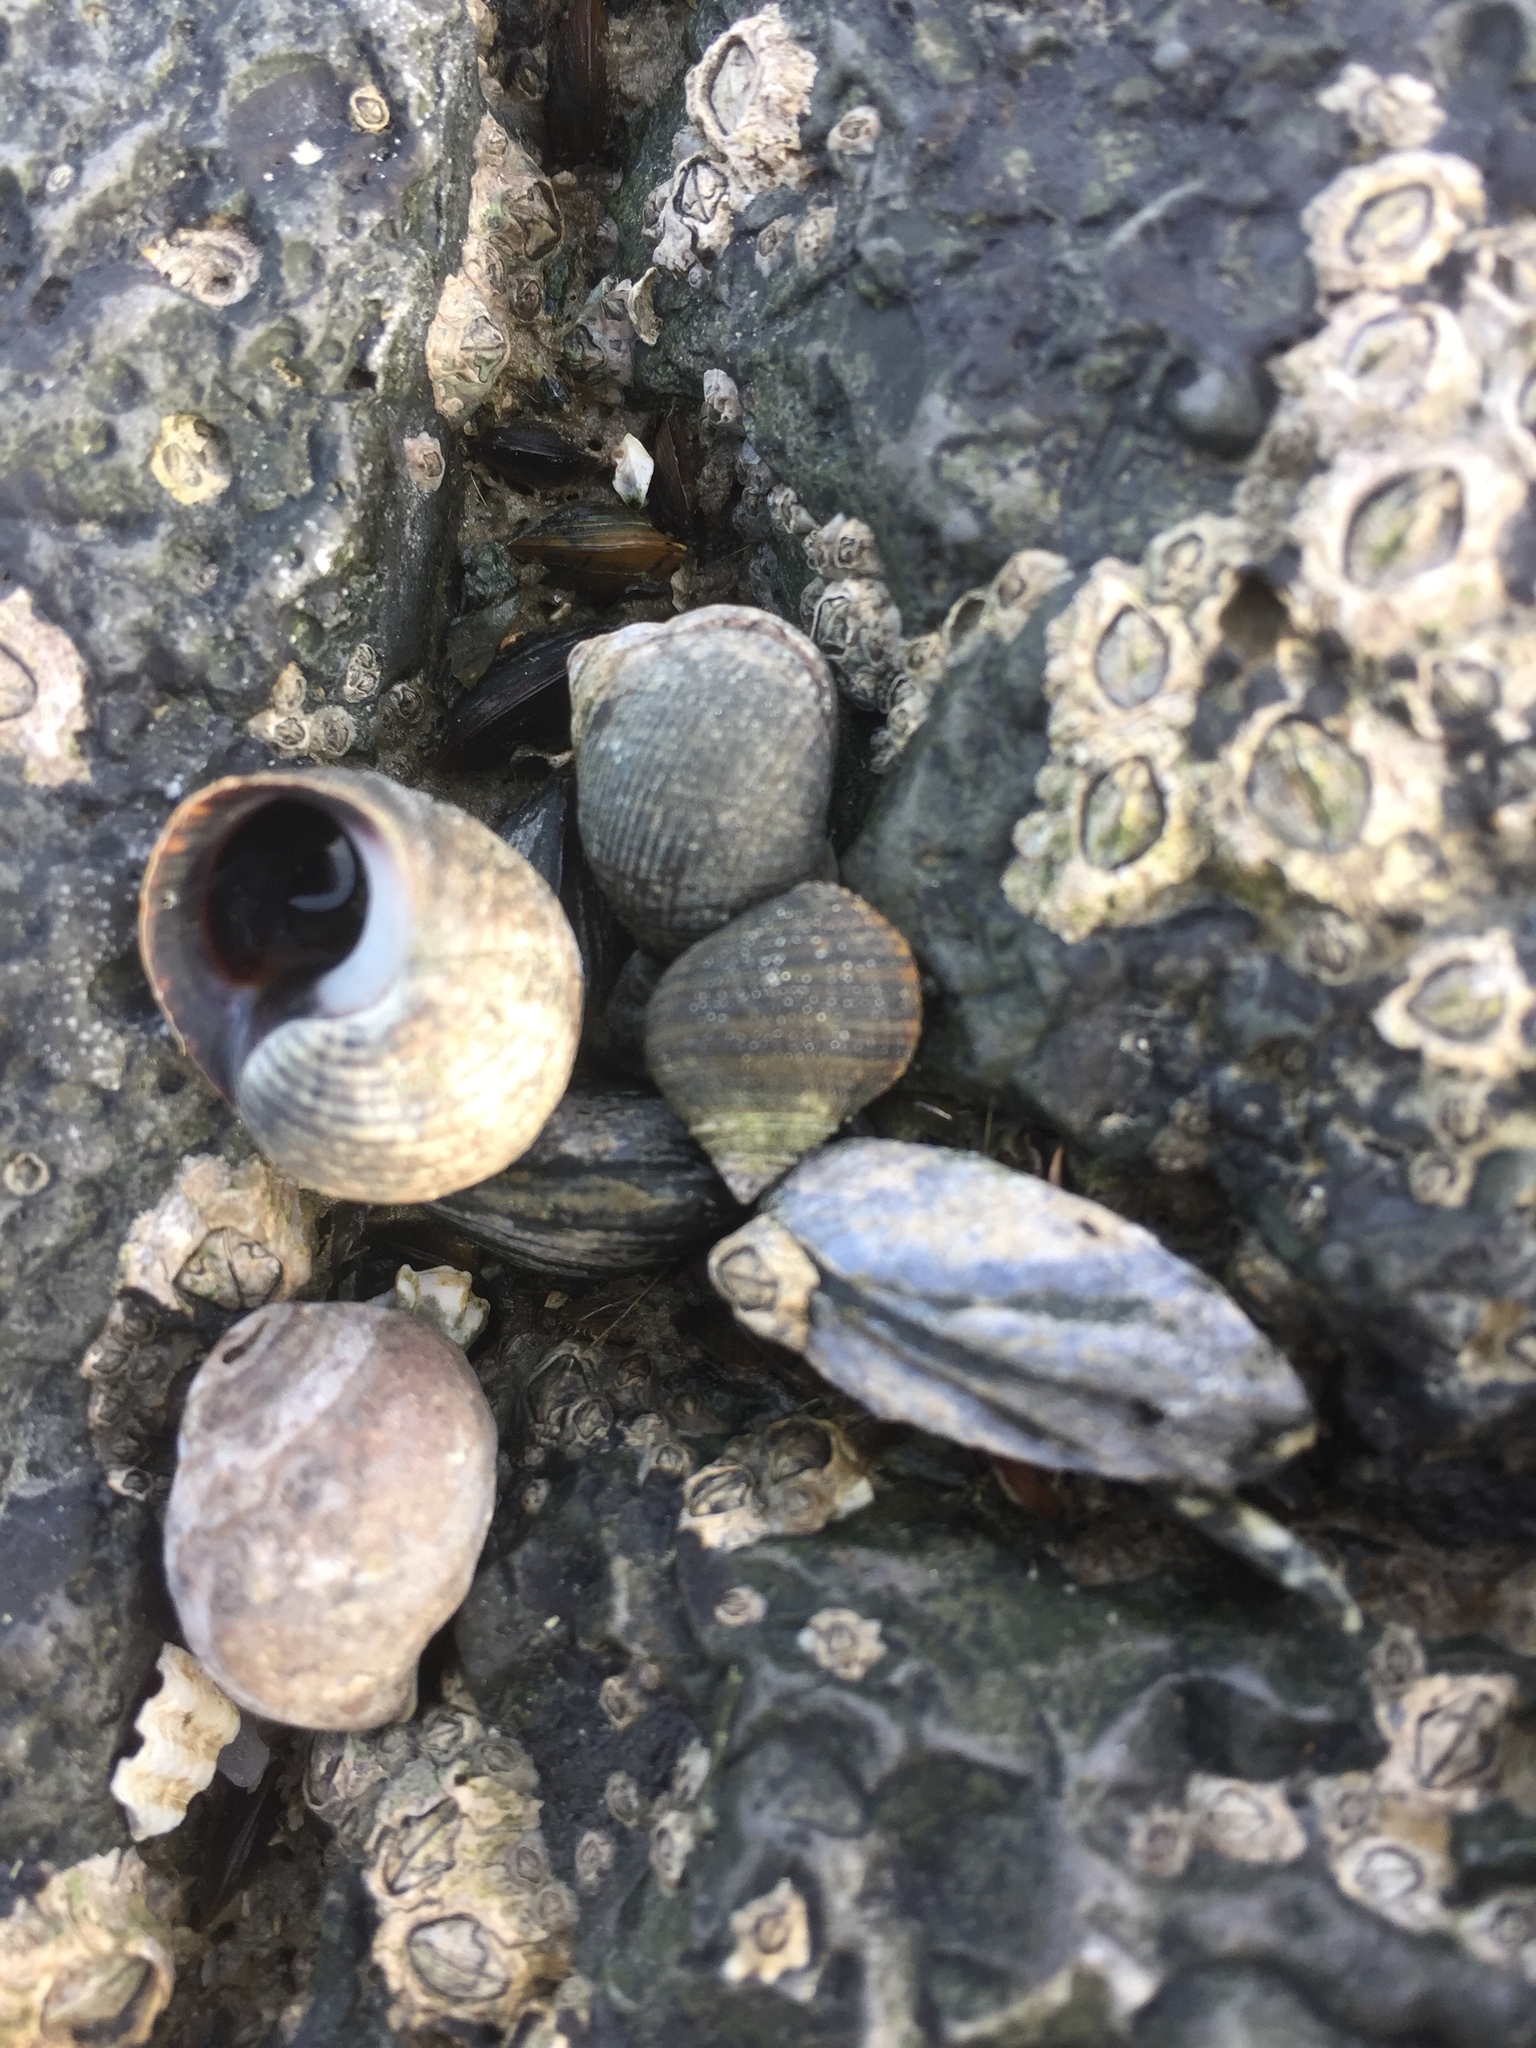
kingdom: Animalia
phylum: Mollusca
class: Gastropoda
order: Littorinimorpha
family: Littorinidae
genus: Littorina
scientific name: Littorina littorea
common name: Common periwinkle
